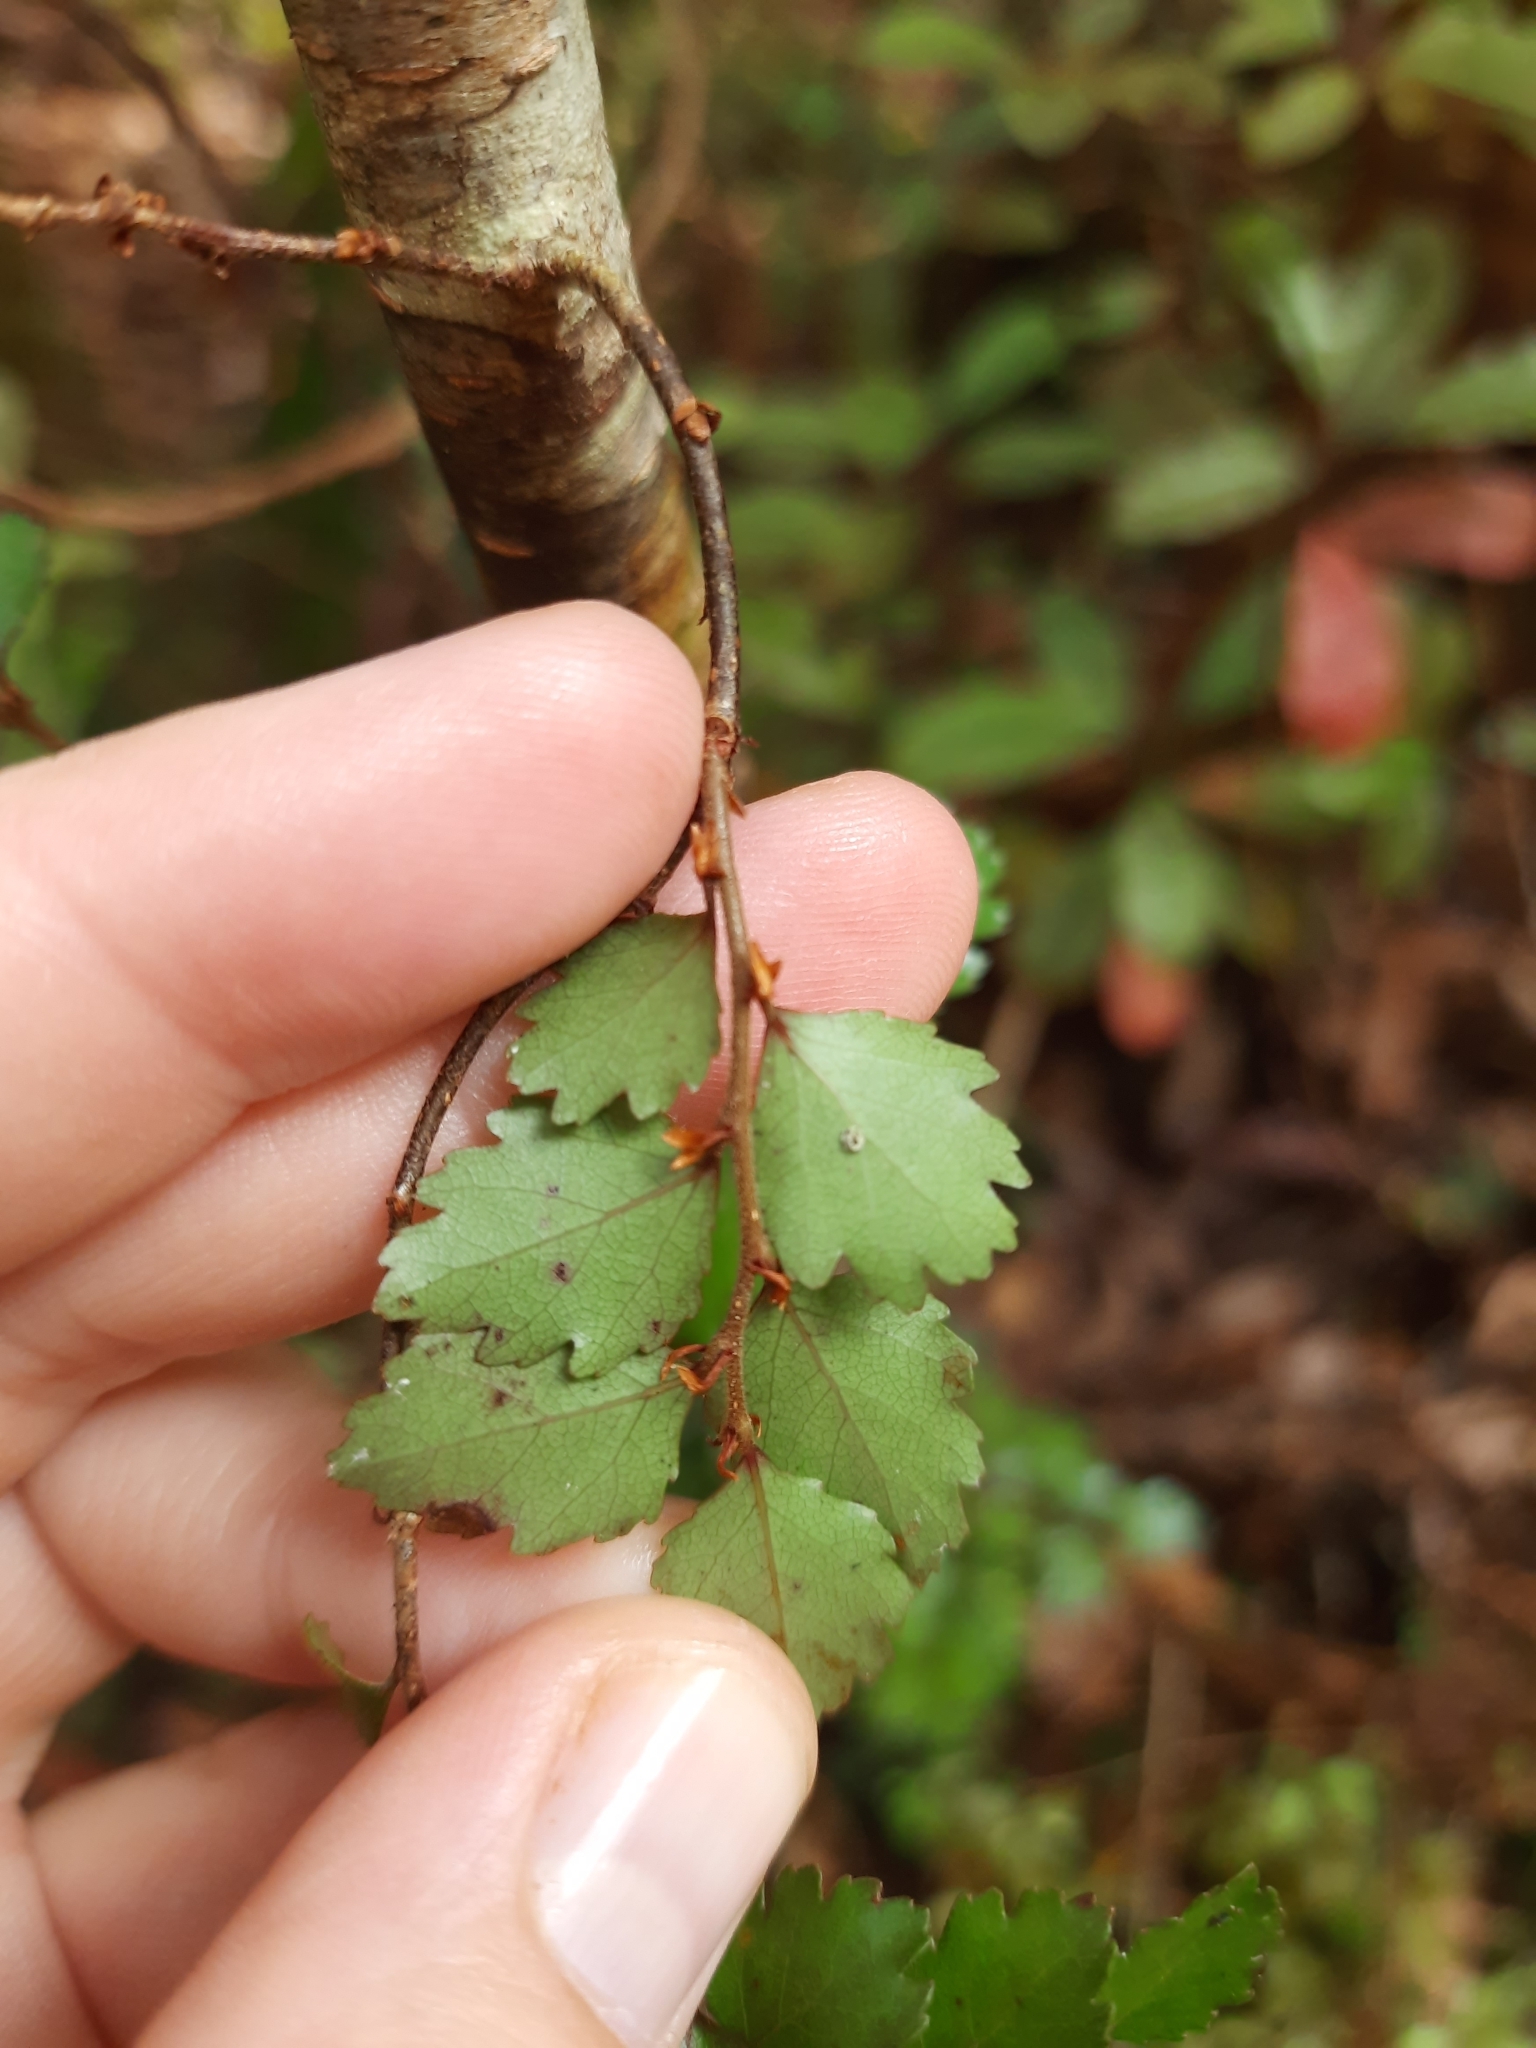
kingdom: Plantae
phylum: Tracheophyta
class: Magnoliopsida
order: Fagales
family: Nothofagaceae
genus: Nothofagus
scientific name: Nothofagus menziesii
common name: Silver beech
